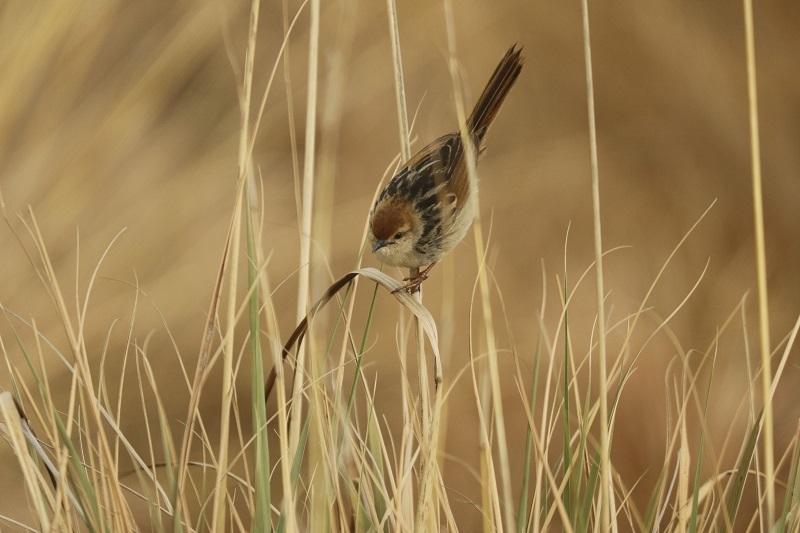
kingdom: Animalia
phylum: Chordata
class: Aves
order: Passeriformes
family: Cisticolidae
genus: Cisticola
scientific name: Cisticola tinniens
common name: Levaillant's cisticola
